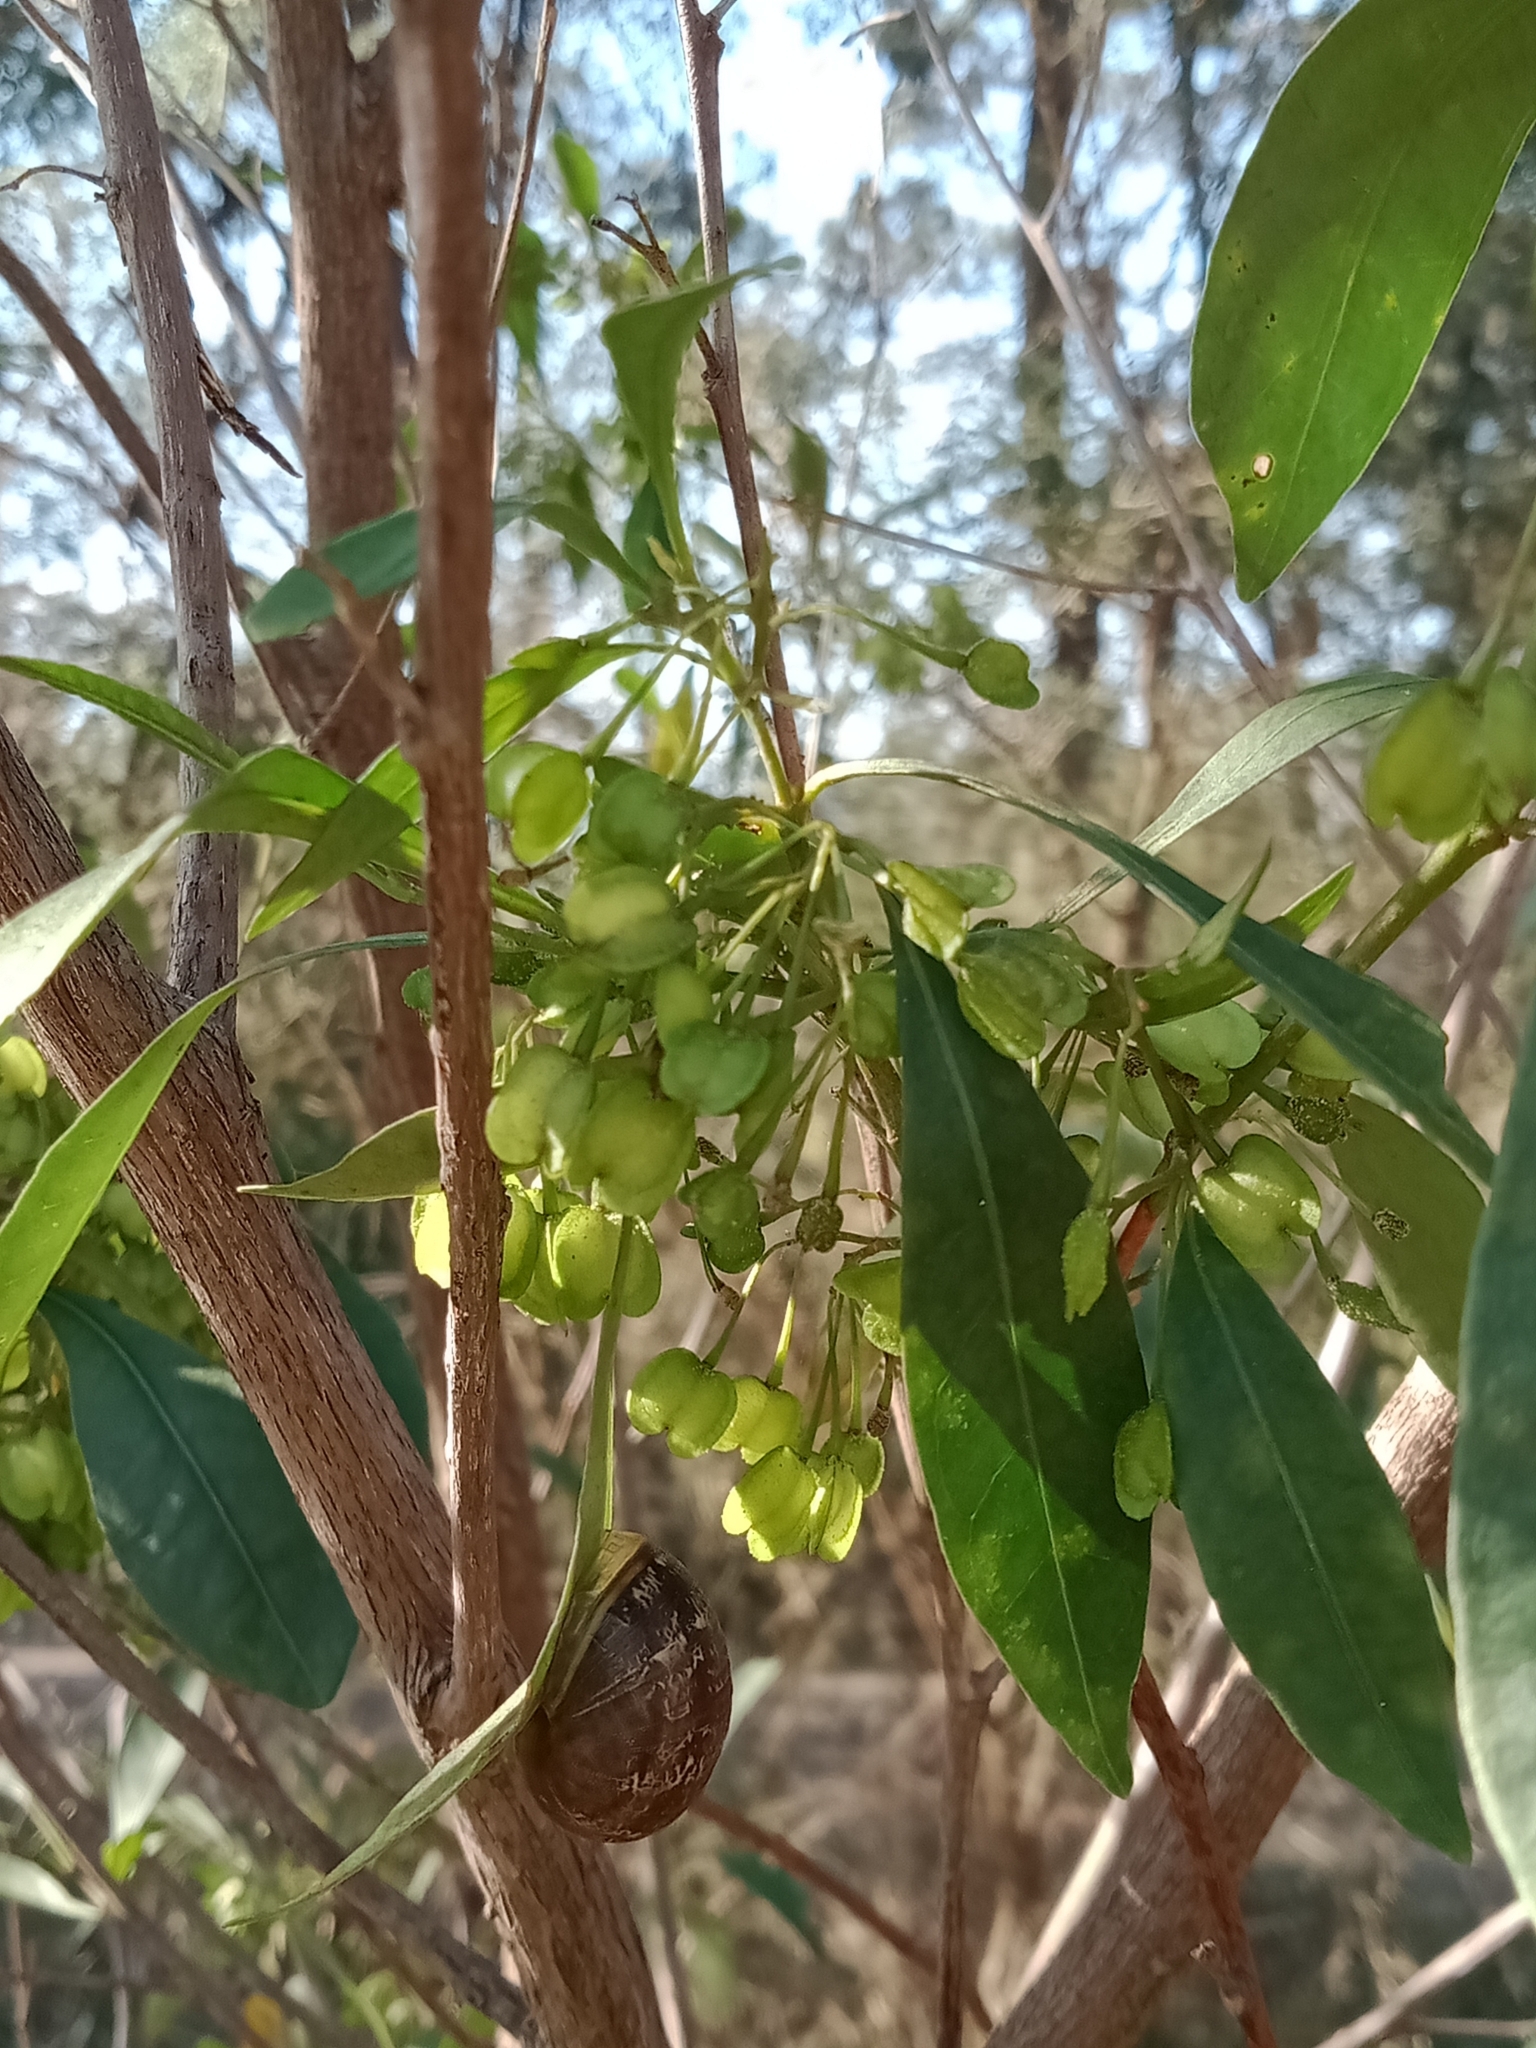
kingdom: Animalia
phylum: Mollusca
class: Gastropoda
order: Stylommatophora
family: Helicidae
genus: Cornu
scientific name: Cornu aspersum
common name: Brown garden snail
